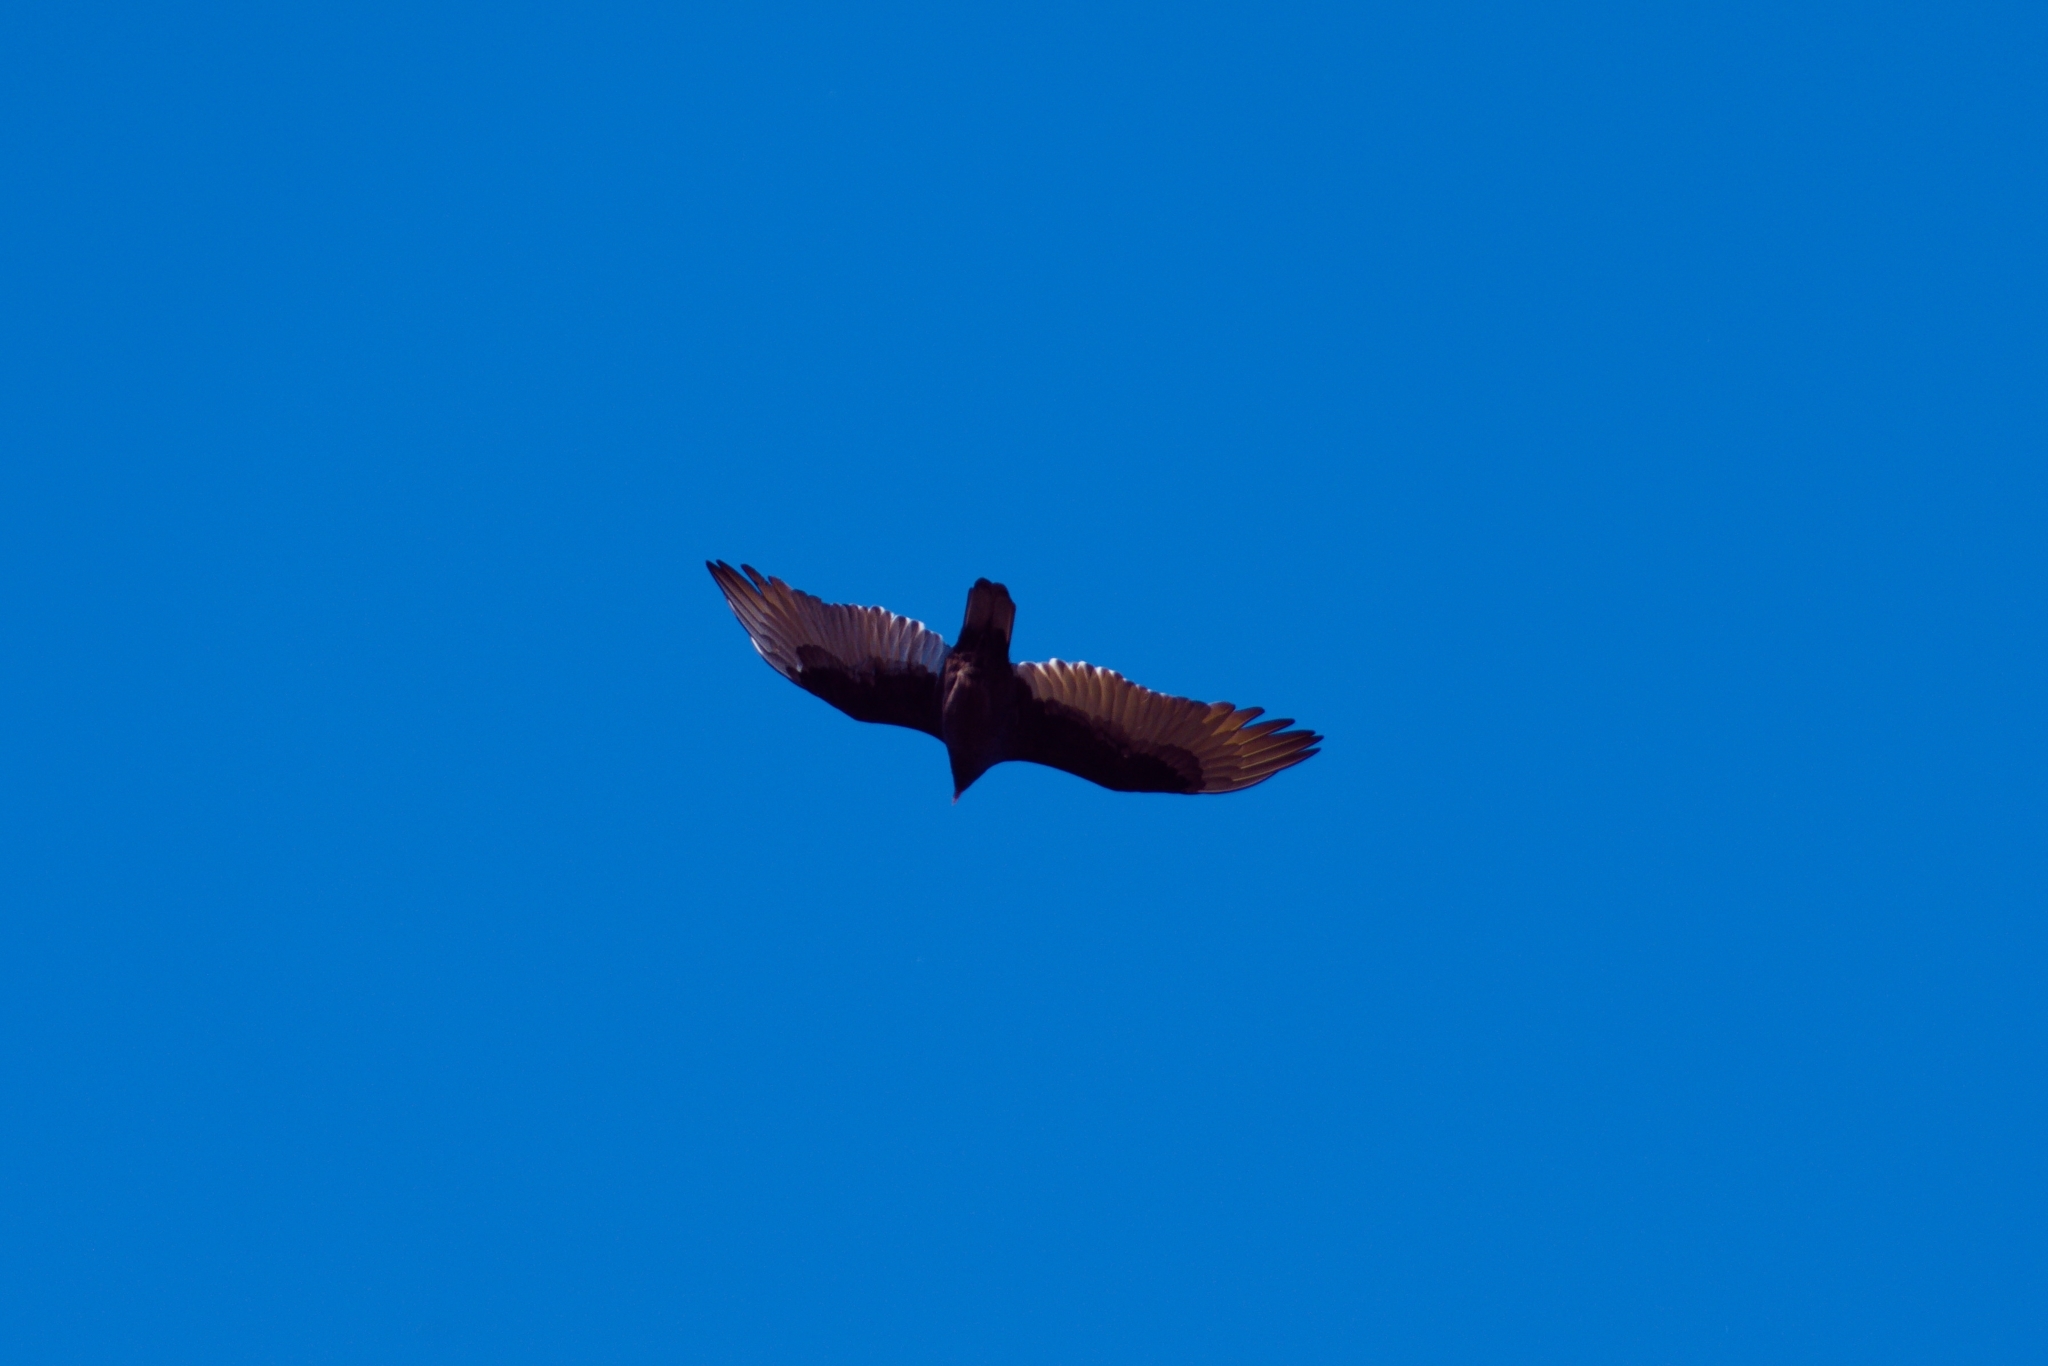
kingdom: Animalia
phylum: Chordata
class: Aves
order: Accipitriformes
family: Cathartidae
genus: Cathartes
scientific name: Cathartes aura
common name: Turkey vulture
